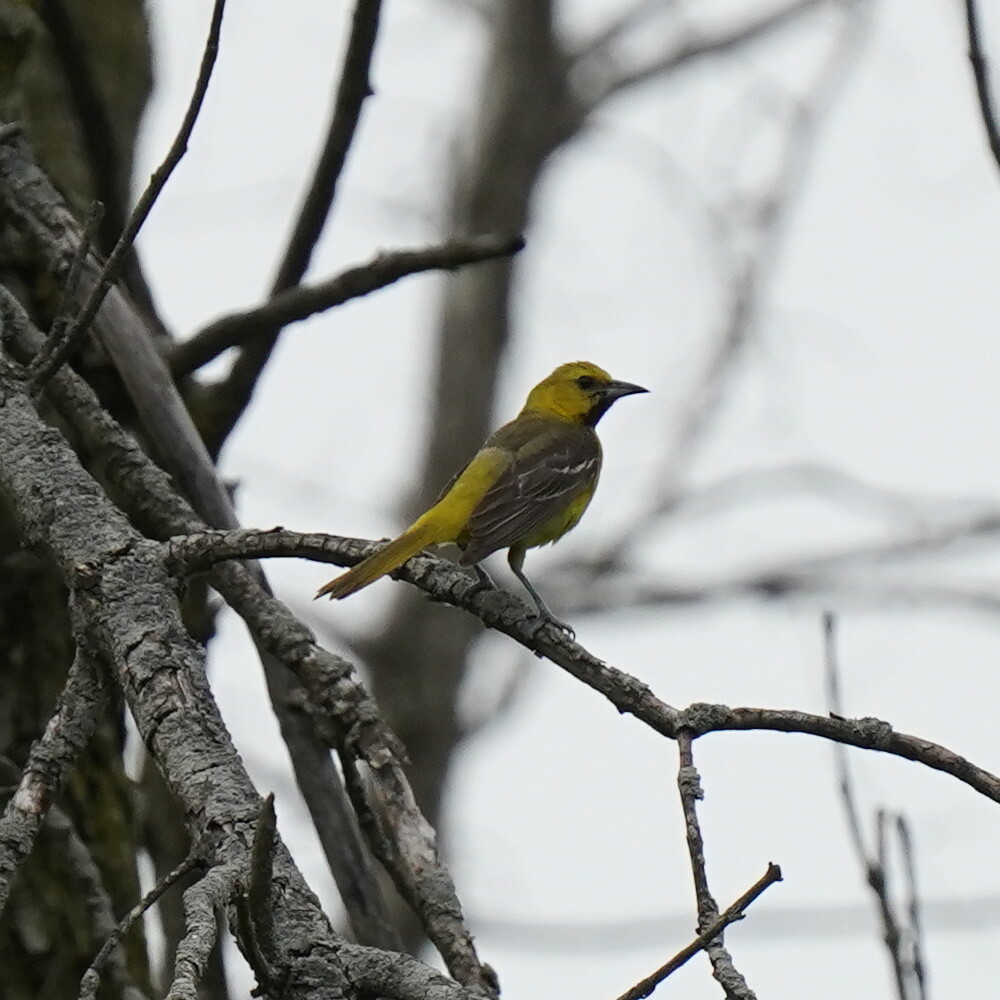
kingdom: Animalia
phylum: Chordata
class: Aves
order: Passeriformes
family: Icteridae
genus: Icterus
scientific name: Icterus spurius
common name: Orchard oriole
